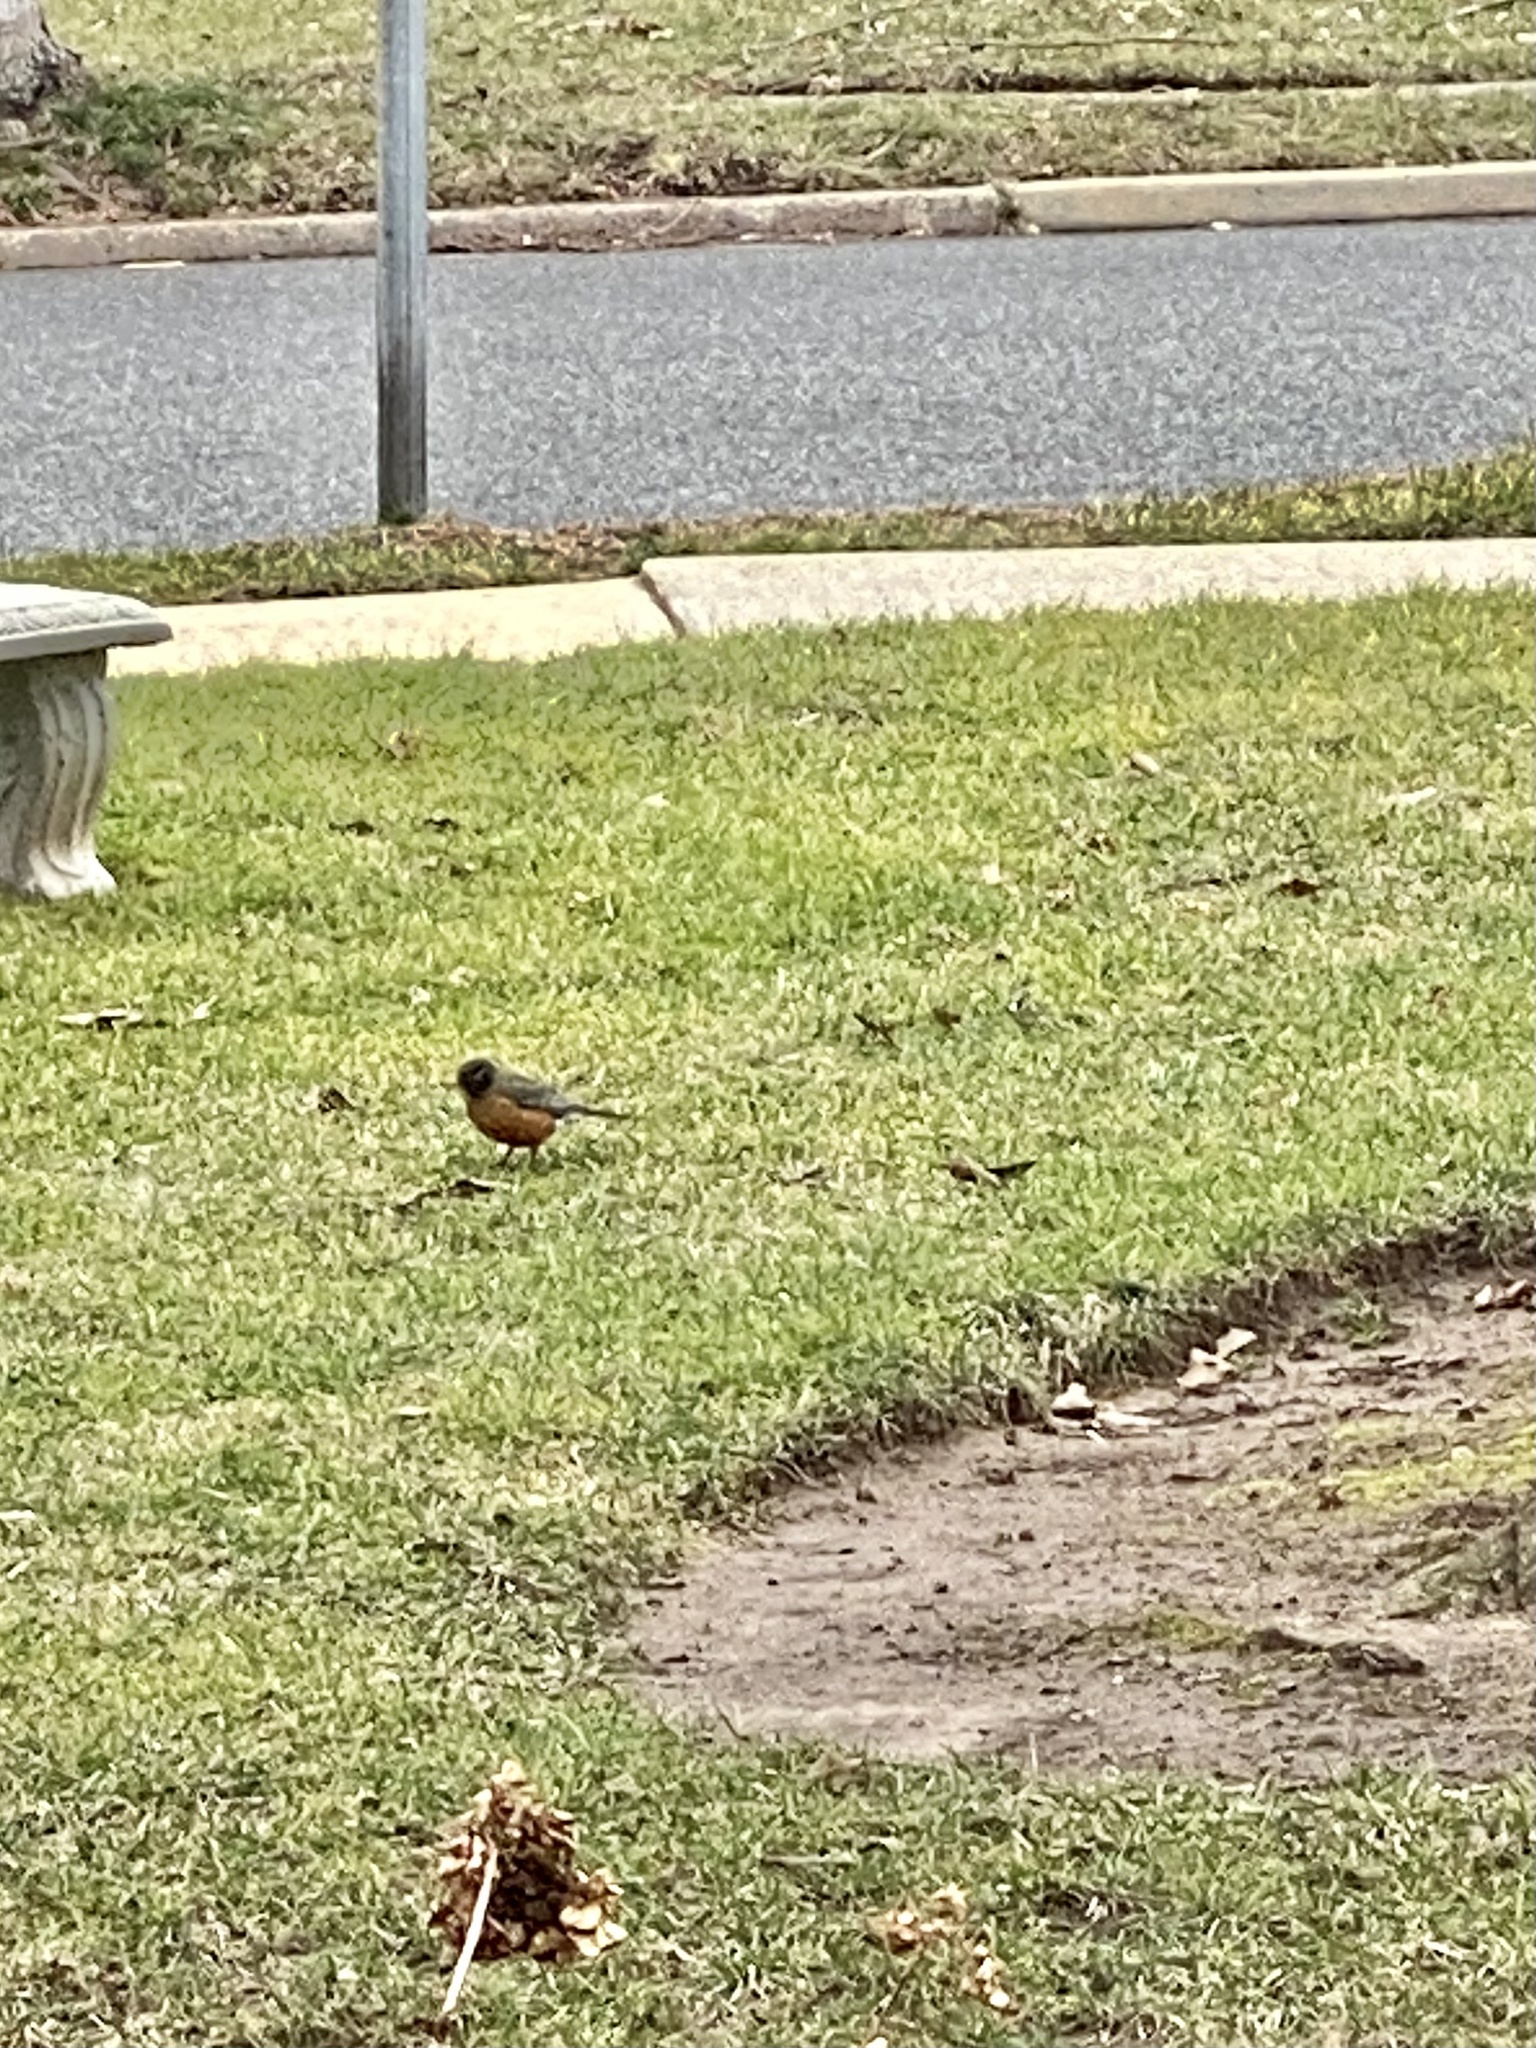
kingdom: Animalia
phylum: Chordata
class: Aves
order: Passeriformes
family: Turdidae
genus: Turdus
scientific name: Turdus migratorius
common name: American robin
